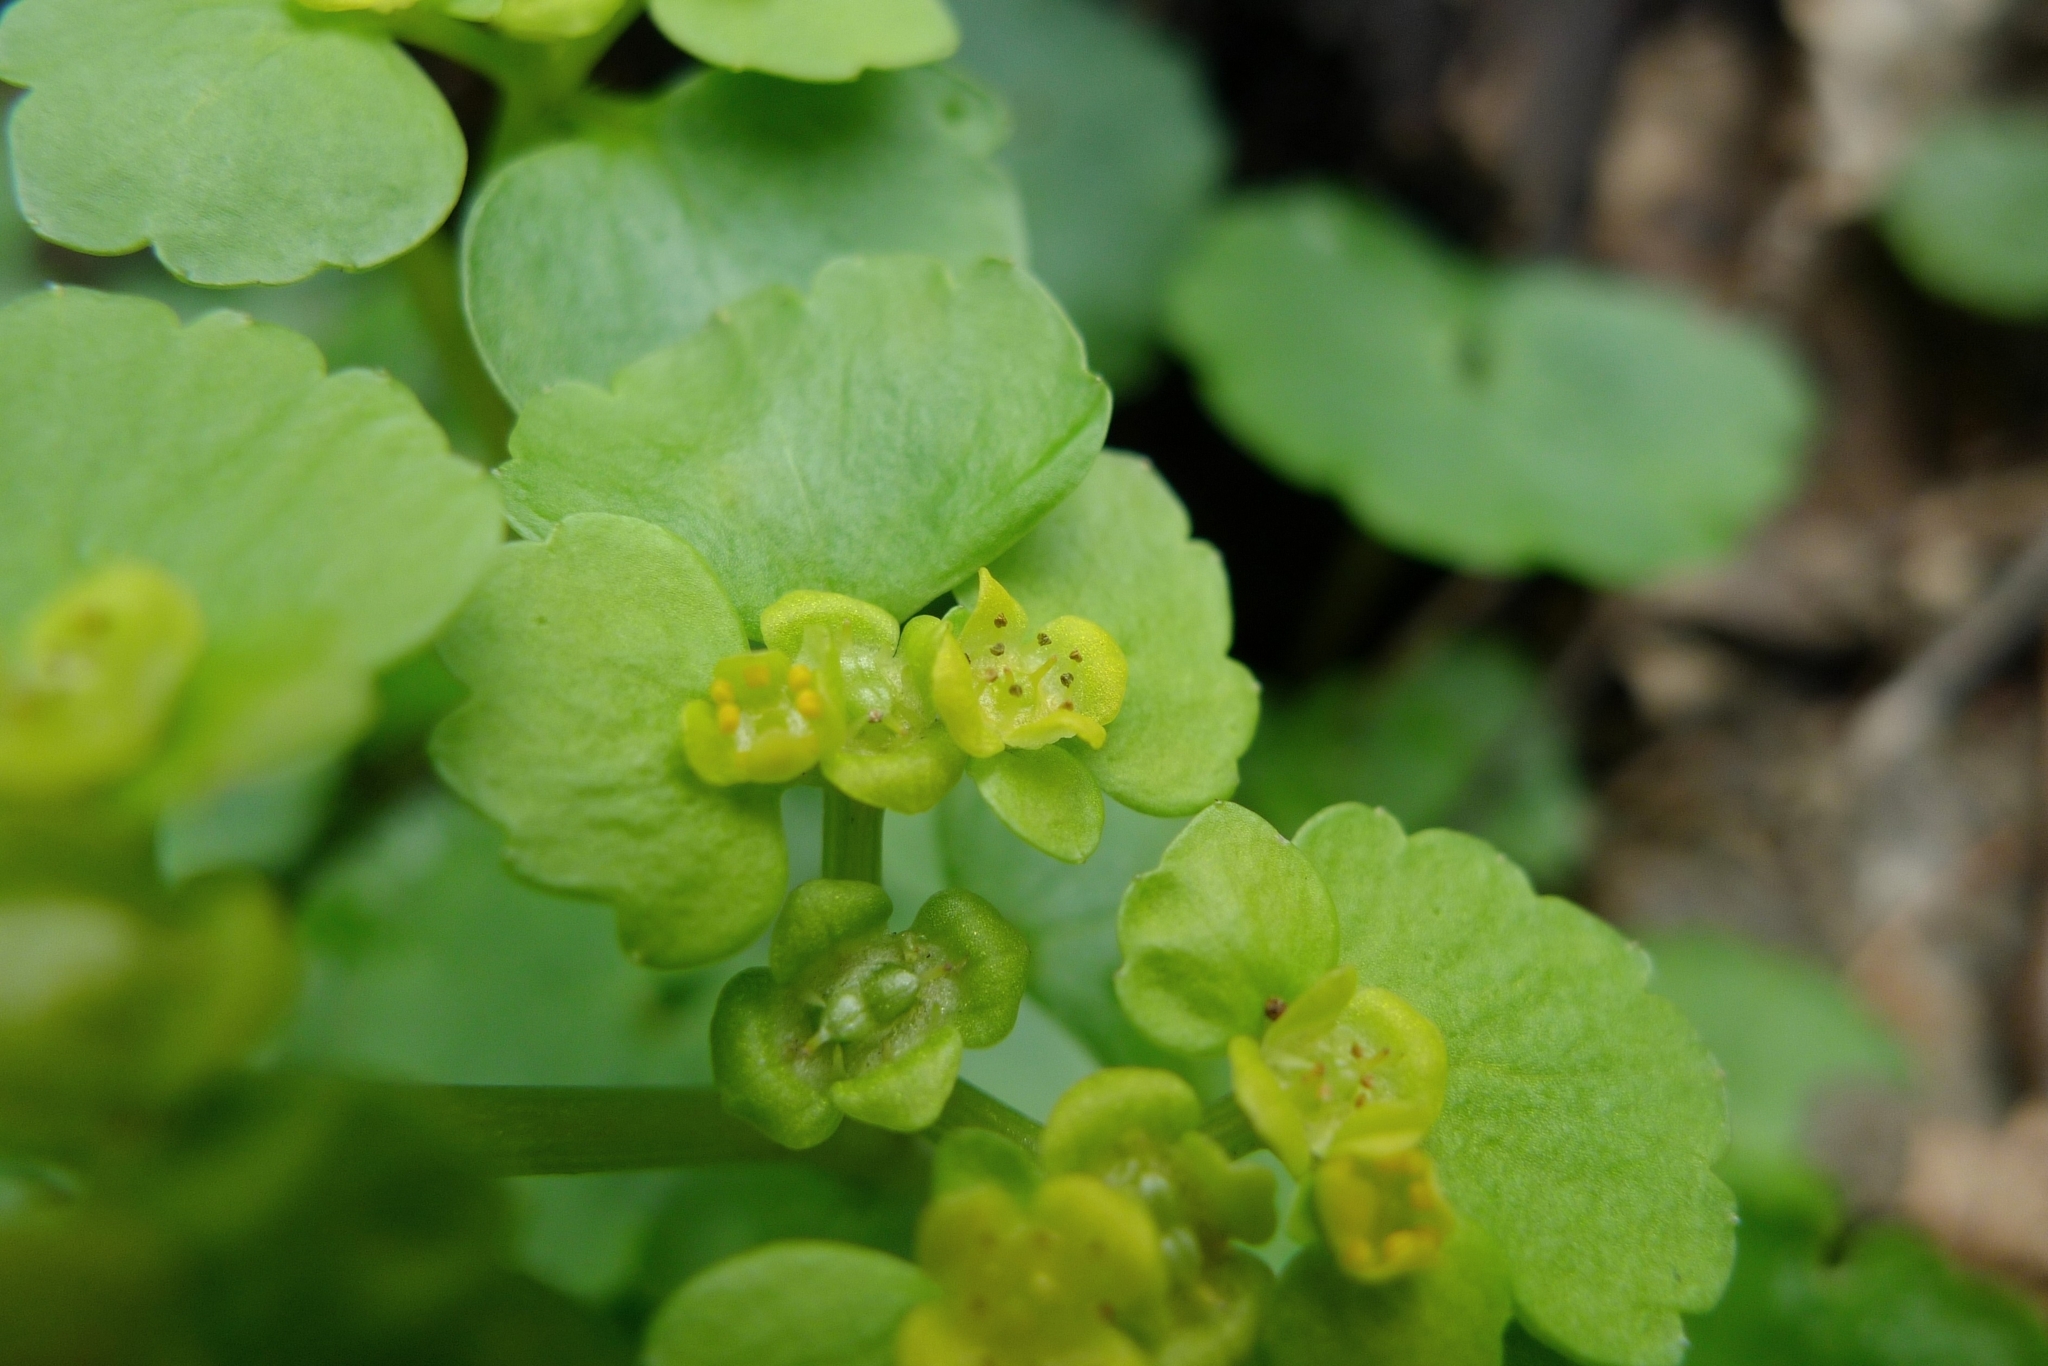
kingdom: Plantae
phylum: Tracheophyta
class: Magnoliopsida
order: Saxifragales
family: Saxifragaceae
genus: Chrysosplenium
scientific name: Chrysosplenium alternifolium
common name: Alternate-leaved golden-saxifrage
